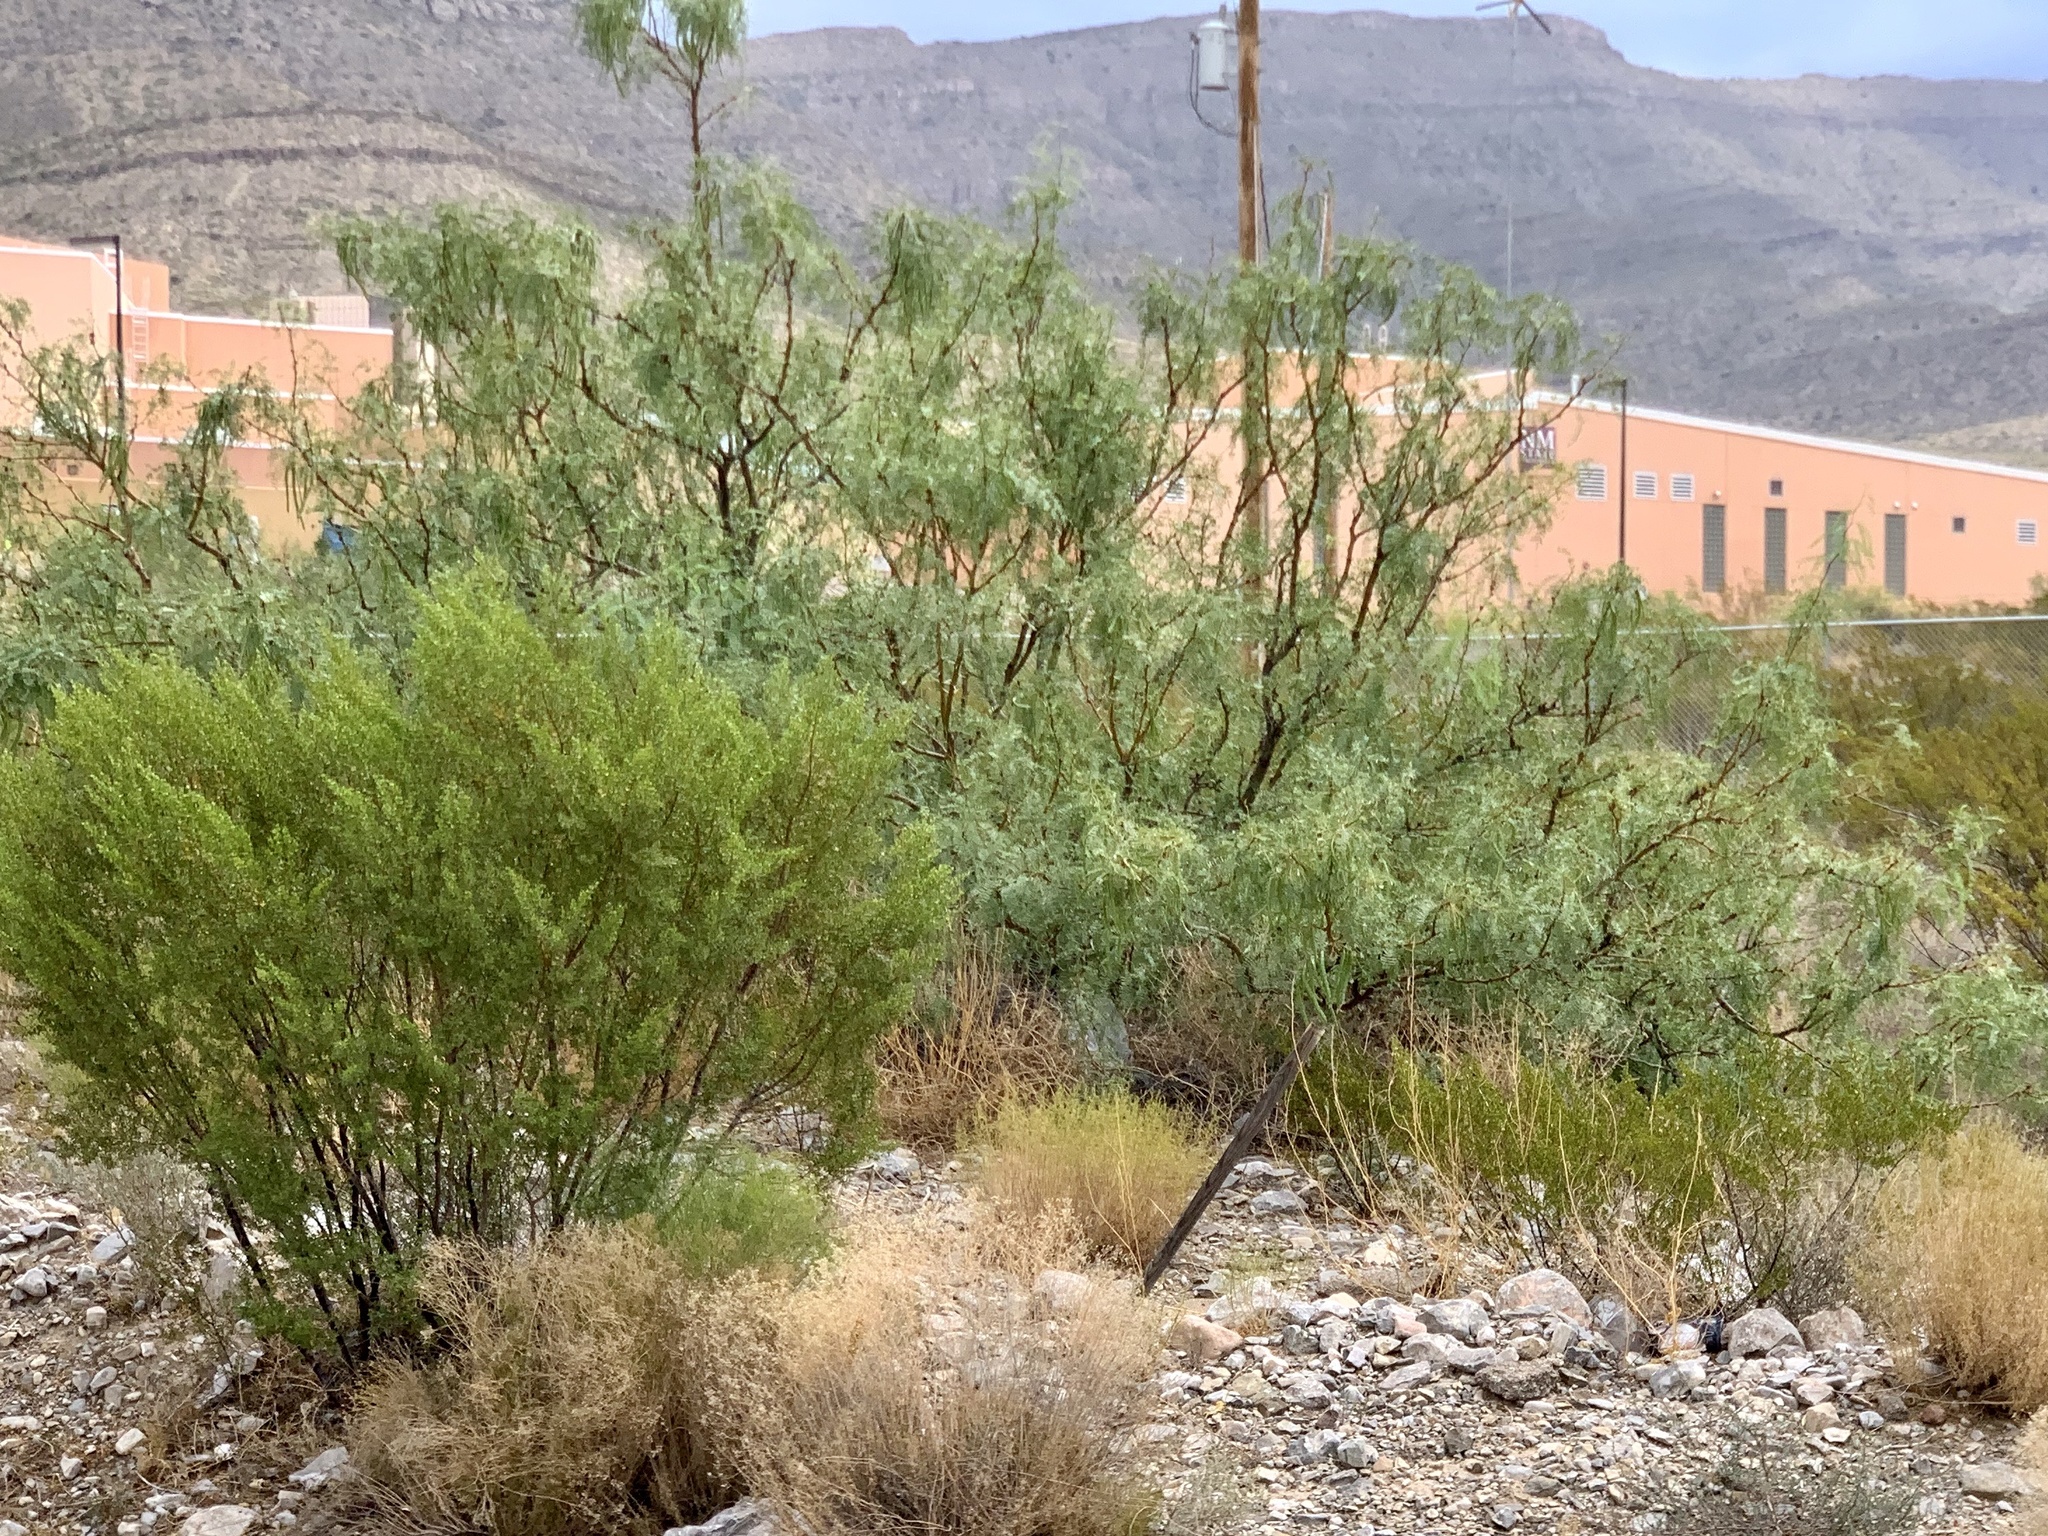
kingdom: Plantae
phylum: Tracheophyta
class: Magnoliopsida
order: Fabales
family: Fabaceae
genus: Prosopis
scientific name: Prosopis glandulosa
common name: Honey mesquite
